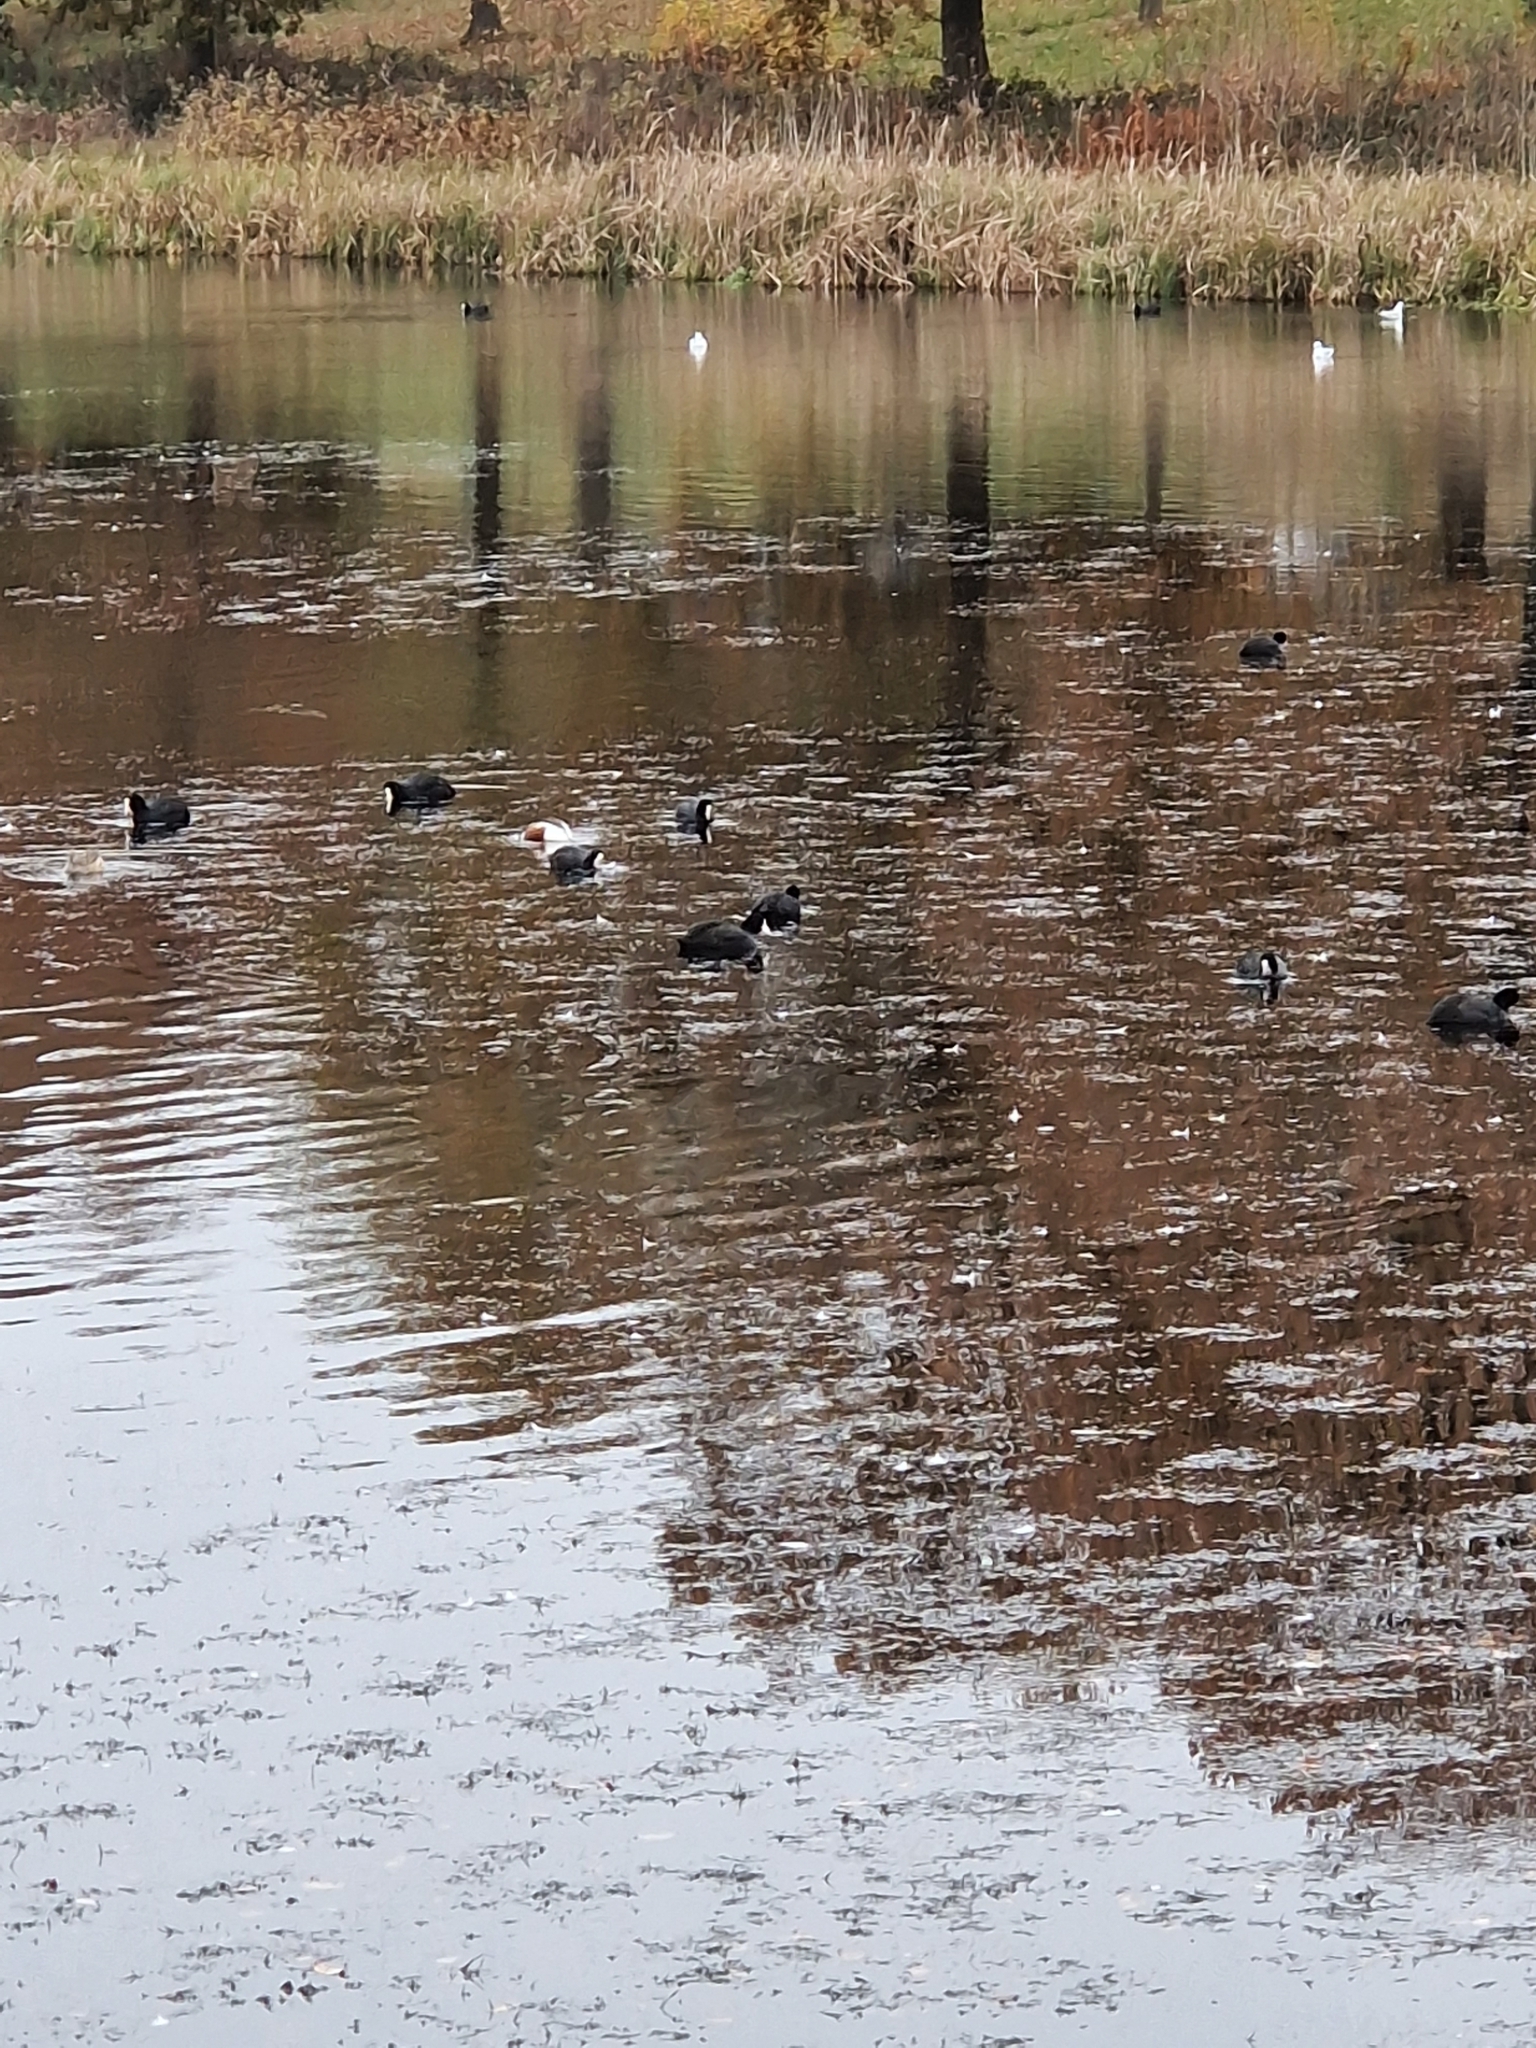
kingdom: Animalia
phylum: Chordata
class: Aves
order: Anseriformes
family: Anatidae
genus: Spatula
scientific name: Spatula clypeata
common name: Northern shoveler
